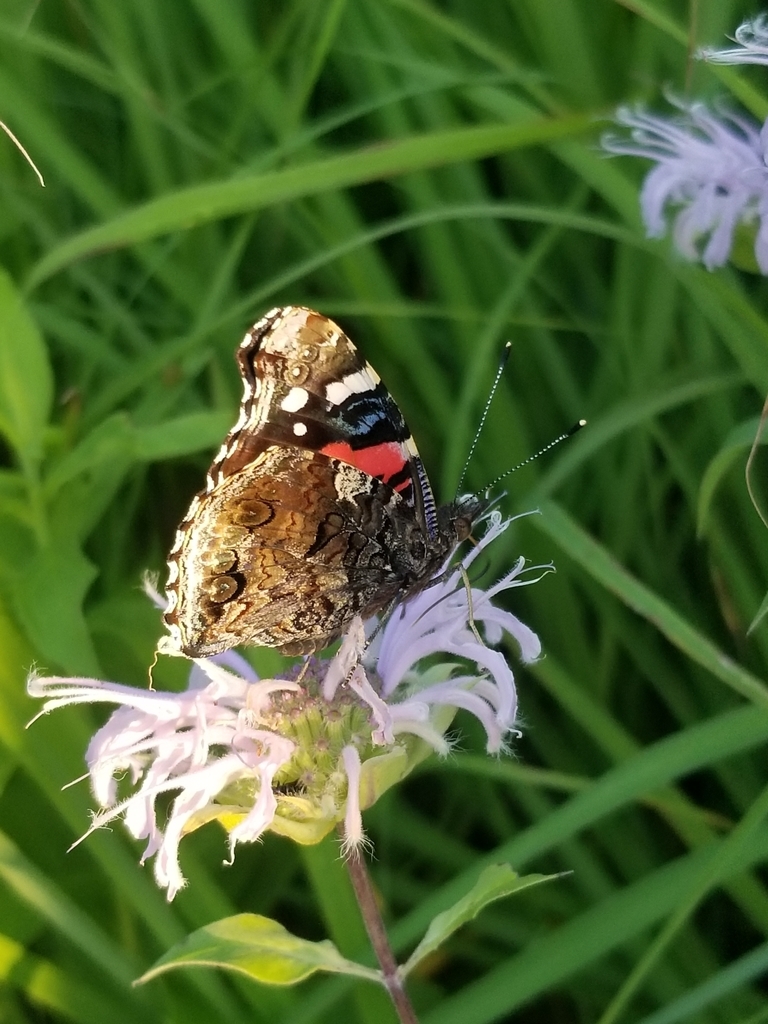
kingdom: Animalia
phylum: Arthropoda
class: Insecta
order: Lepidoptera
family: Nymphalidae
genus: Vanessa
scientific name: Vanessa atalanta
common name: Red admiral
